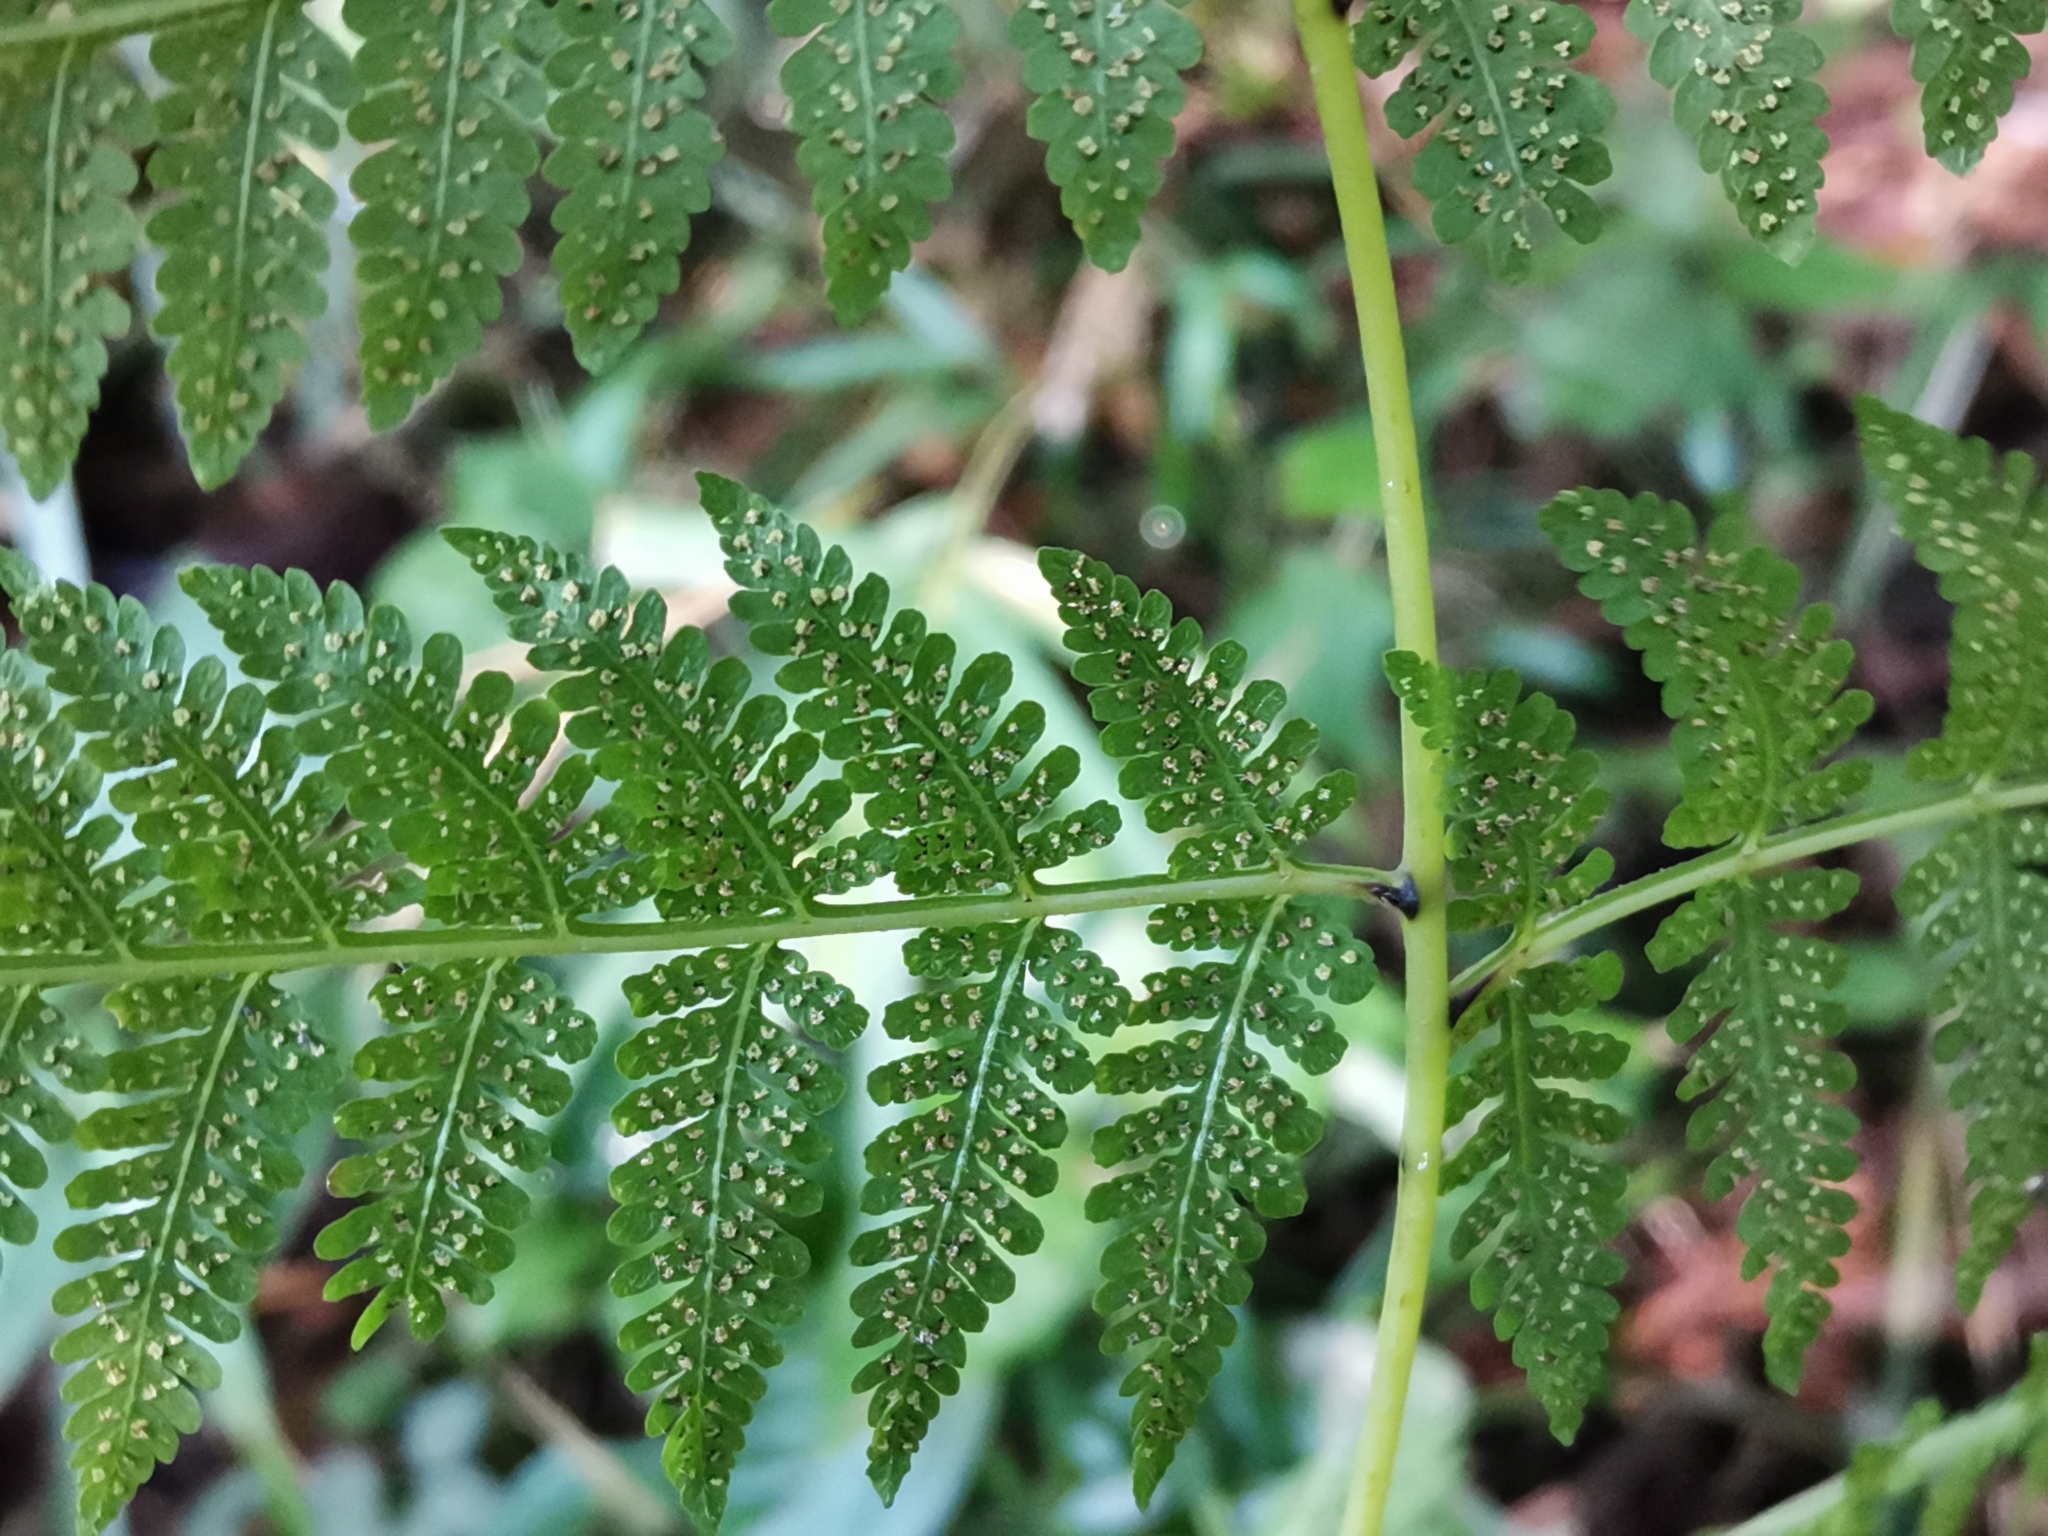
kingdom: Plantae
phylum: Tracheophyta
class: Polypodiopsida
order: Polypodiales
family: Thelypteridaceae
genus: Macrothelypteris
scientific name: Macrothelypteris viridifrons
